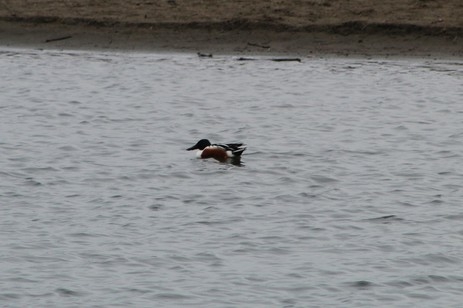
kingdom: Animalia
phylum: Chordata
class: Aves
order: Anseriformes
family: Anatidae
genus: Spatula
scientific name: Spatula clypeata
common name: Northern shoveler
